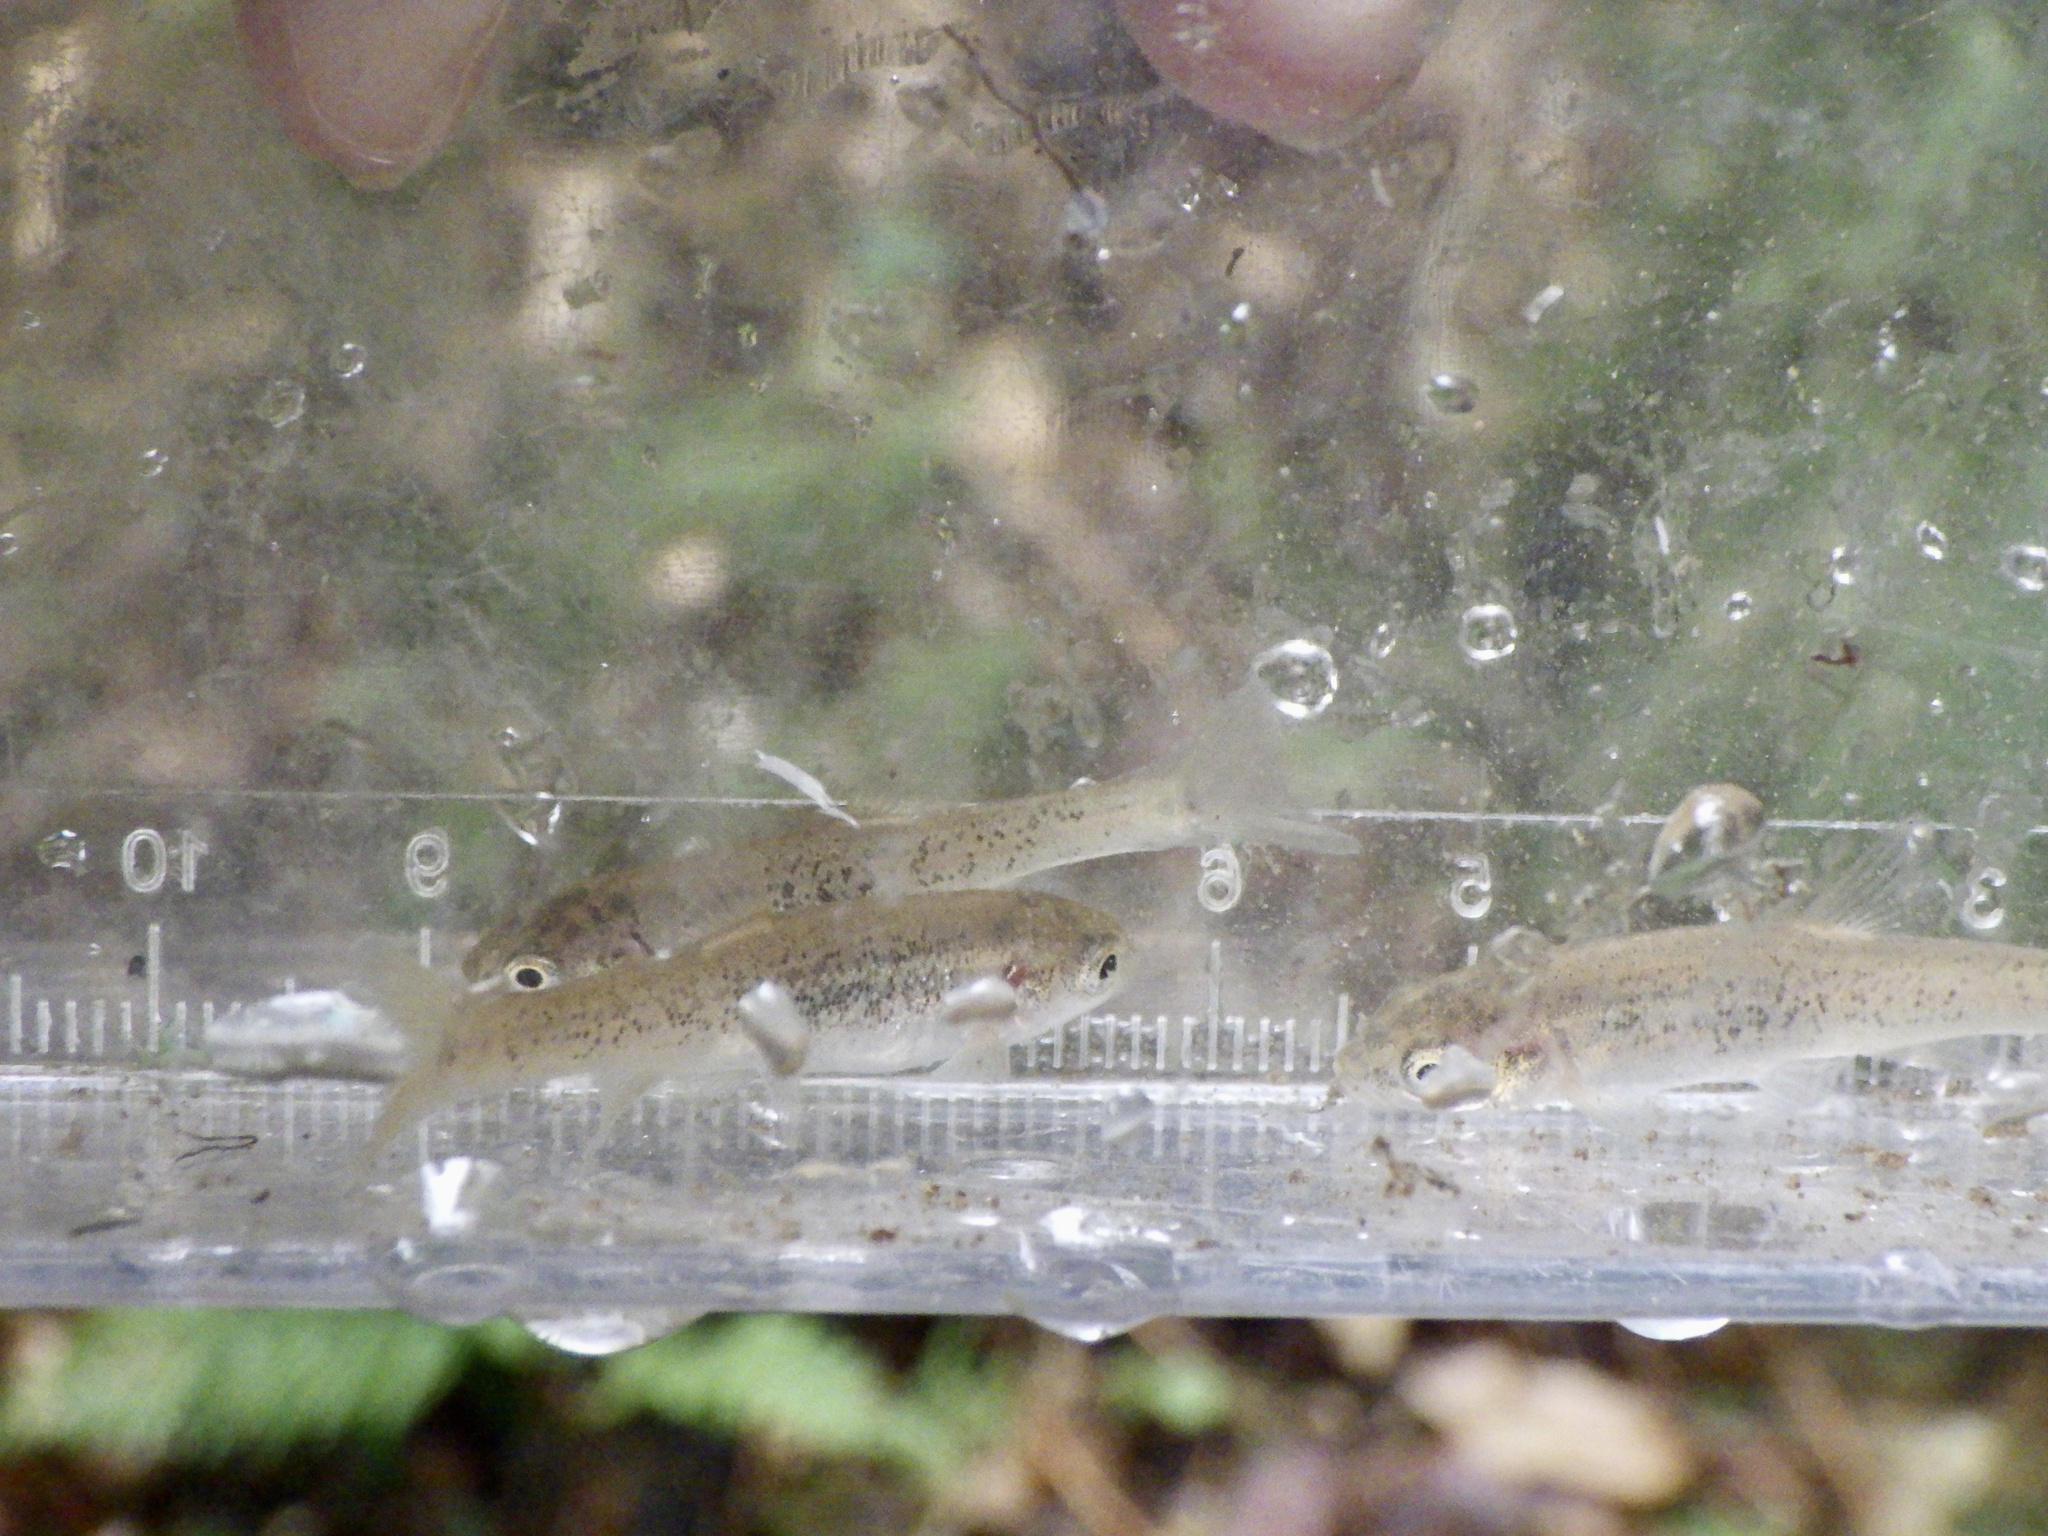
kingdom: Animalia
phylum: Chordata
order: Cypriniformes
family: Cyprinidae
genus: Phoxinus
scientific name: Phoxinus jouyi
